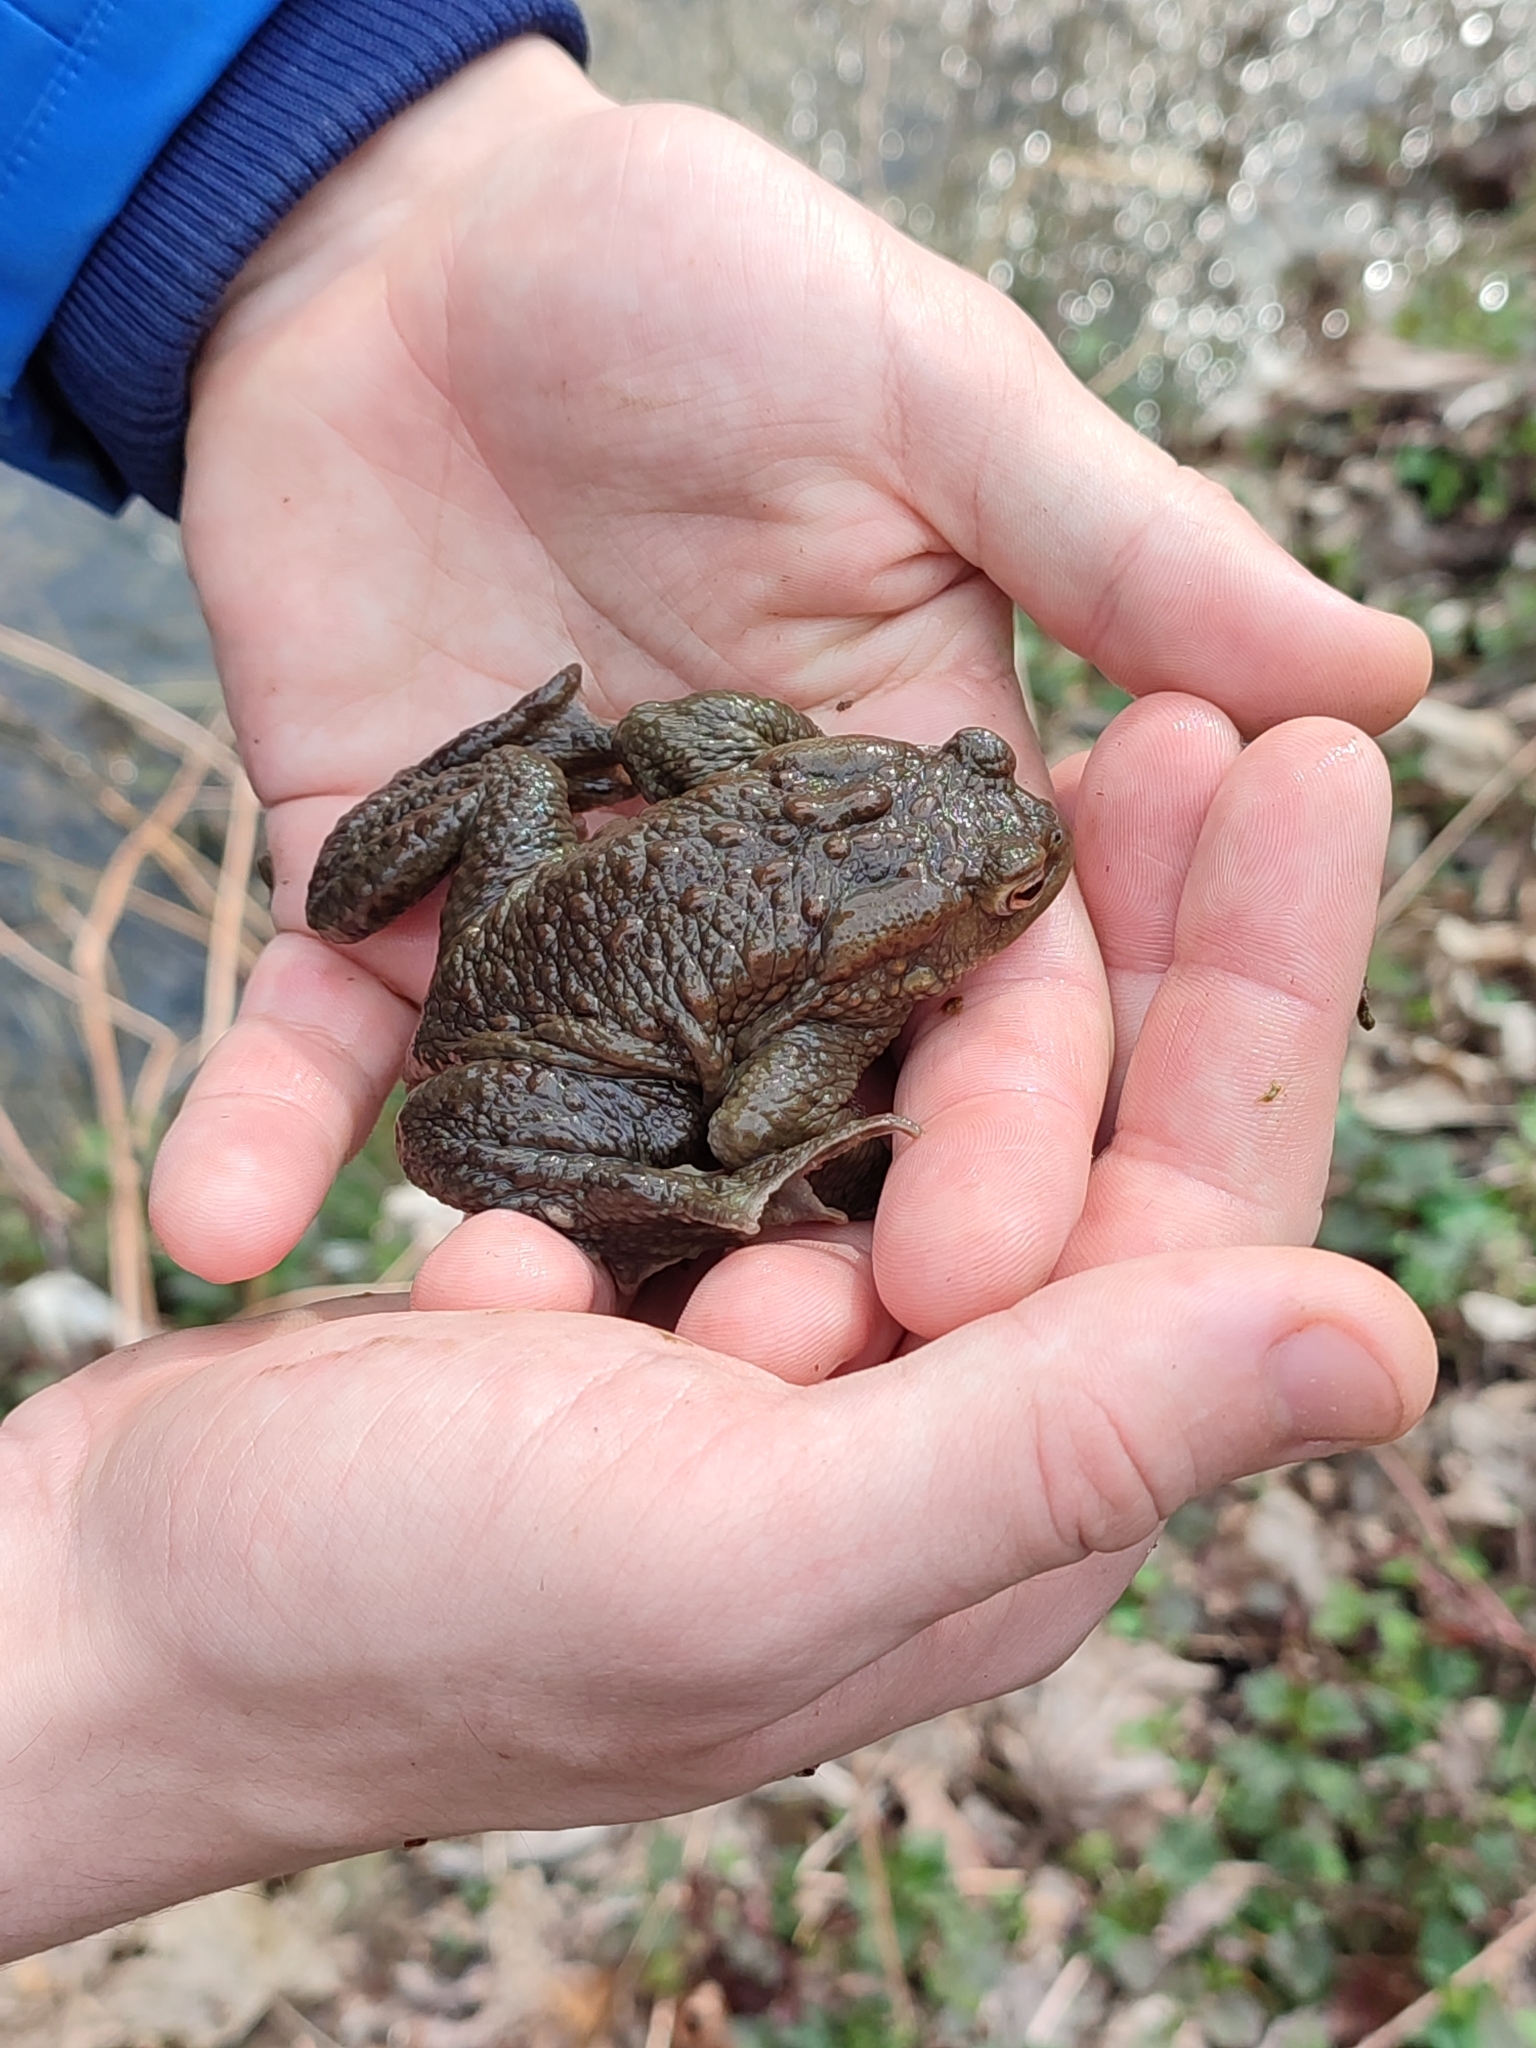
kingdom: Animalia
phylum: Chordata
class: Amphibia
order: Anura
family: Bufonidae
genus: Bufo
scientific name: Bufo bufo
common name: Common toad
